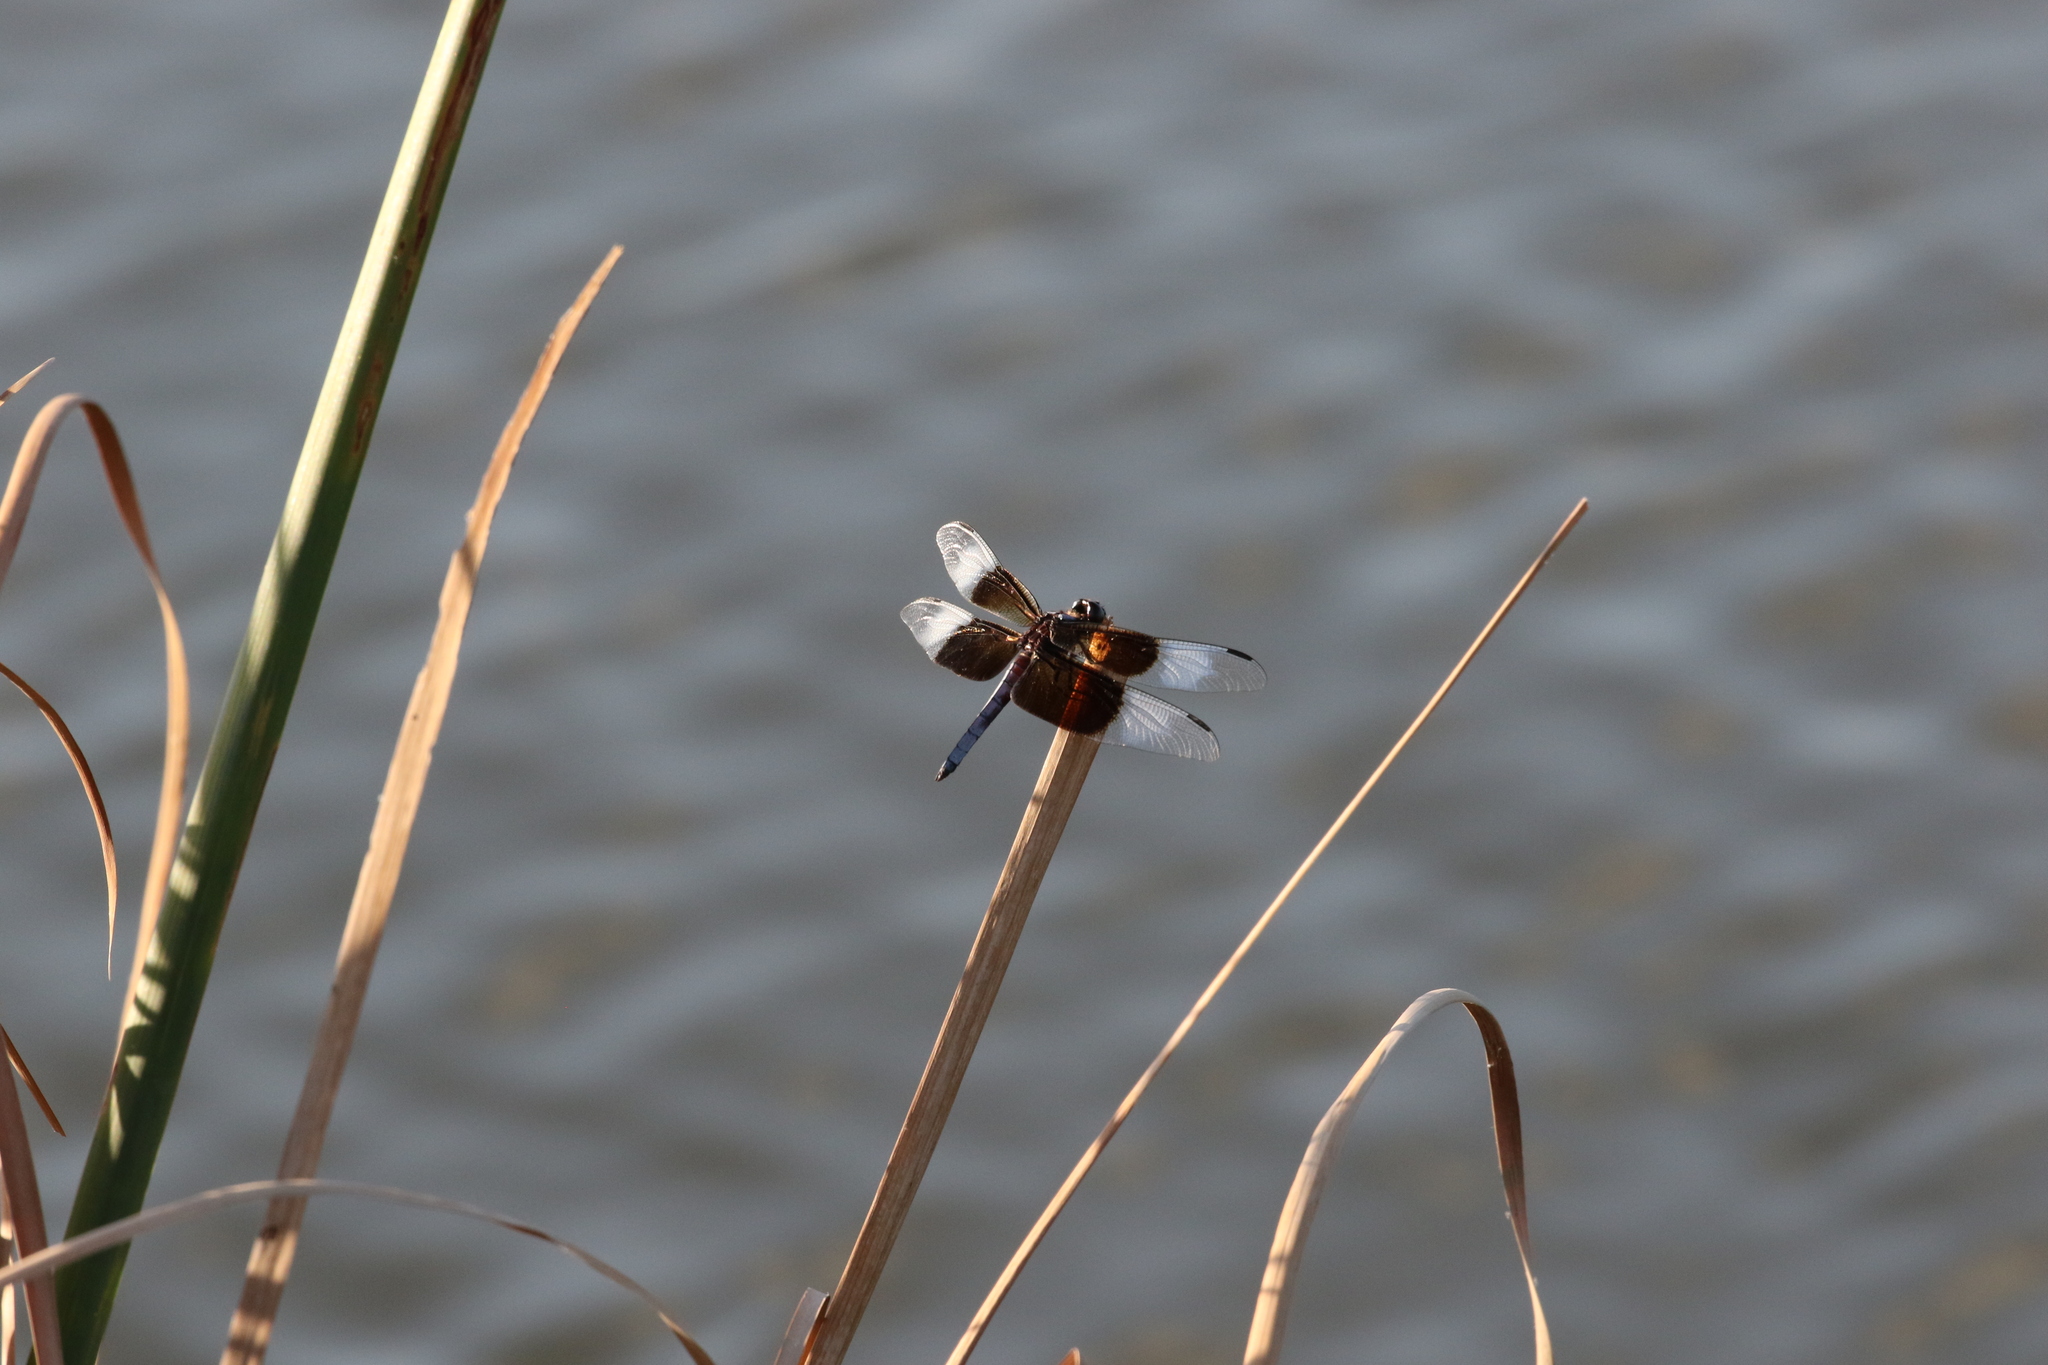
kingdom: Animalia
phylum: Arthropoda
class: Insecta
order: Odonata
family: Libellulidae
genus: Libellula
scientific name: Libellula luctuosa
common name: Widow skimmer
